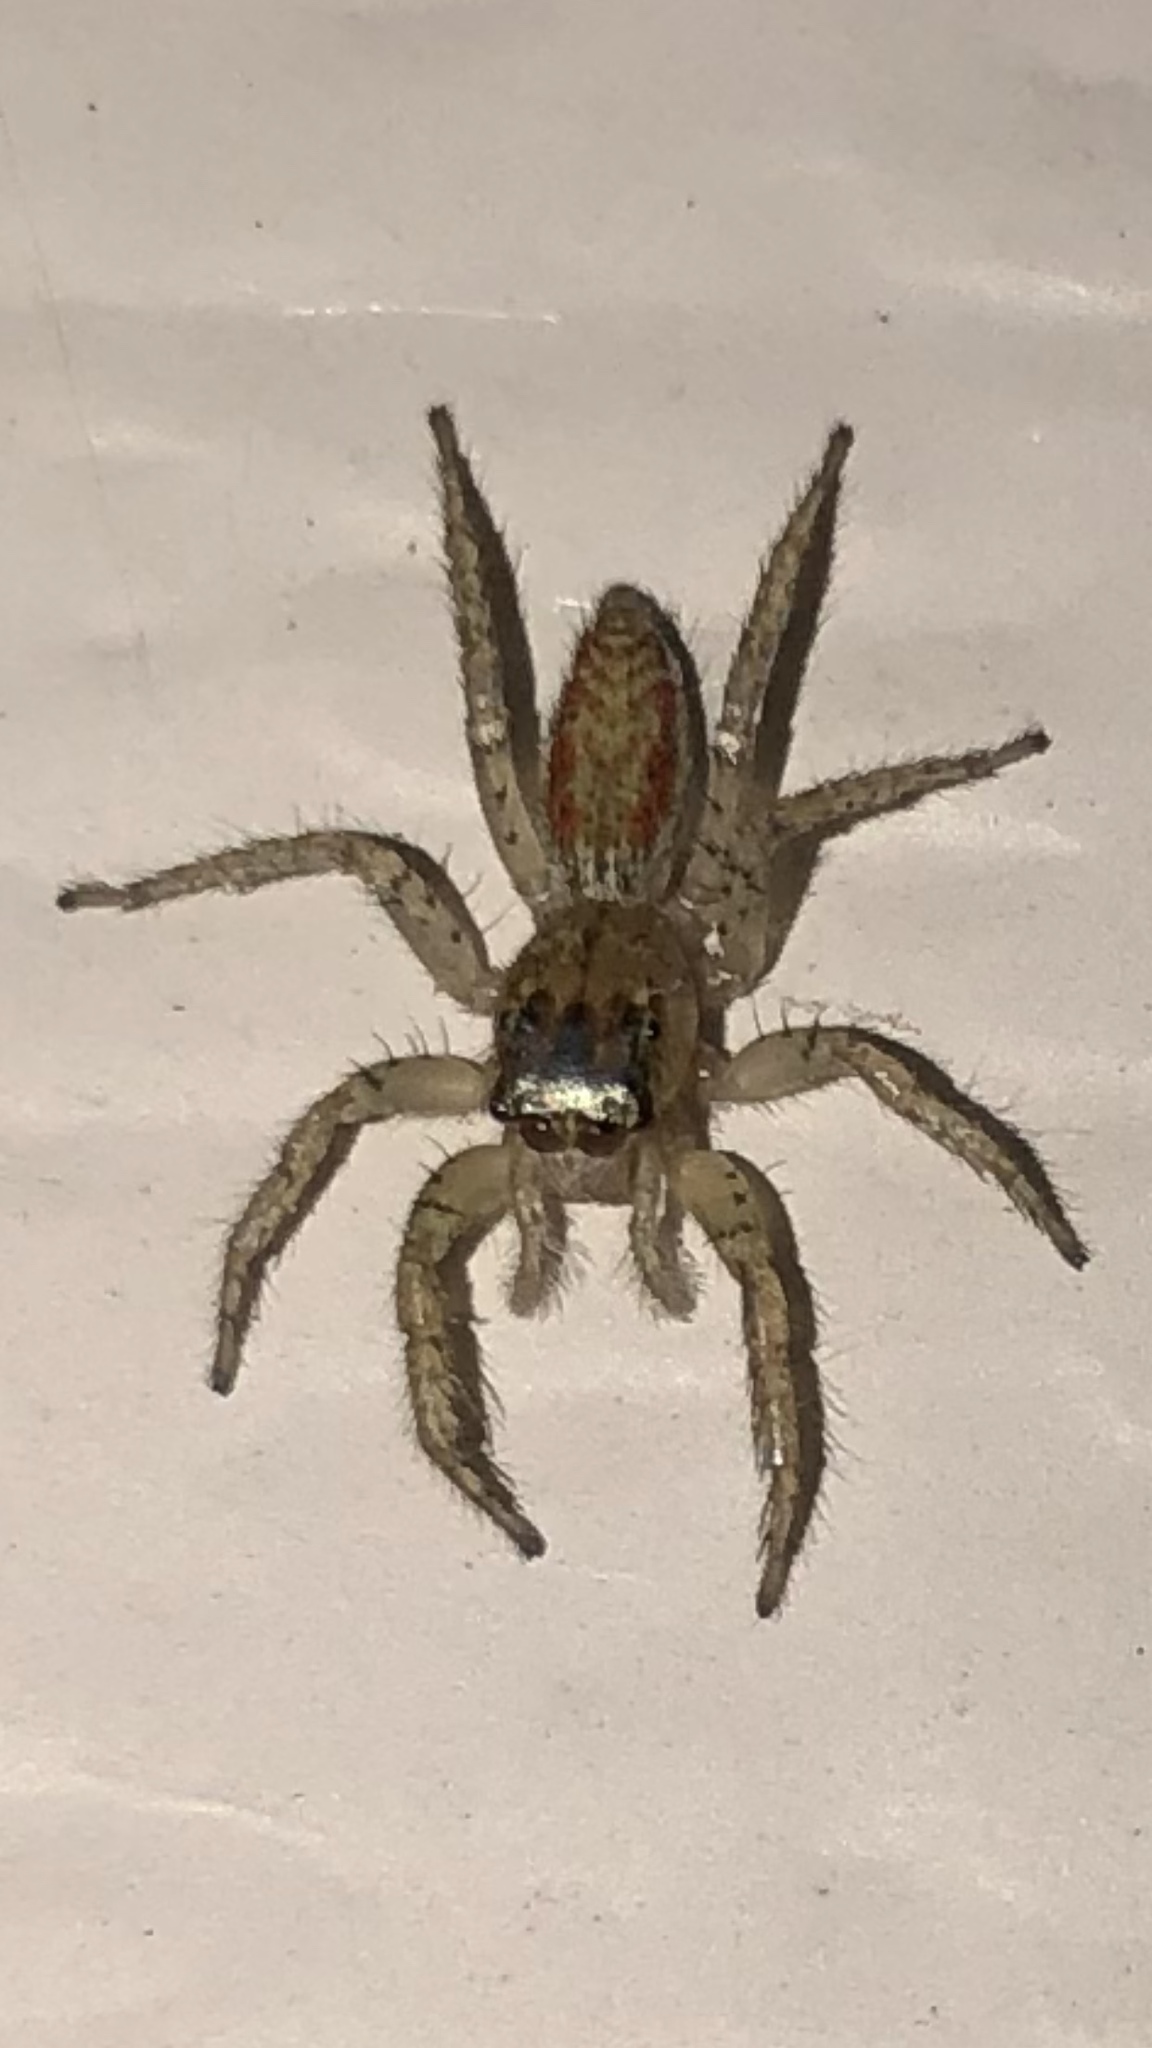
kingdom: Animalia
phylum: Arthropoda
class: Arachnida
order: Araneae
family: Salticidae
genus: Maevia
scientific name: Maevia inclemens
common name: Dimorphic jumper
